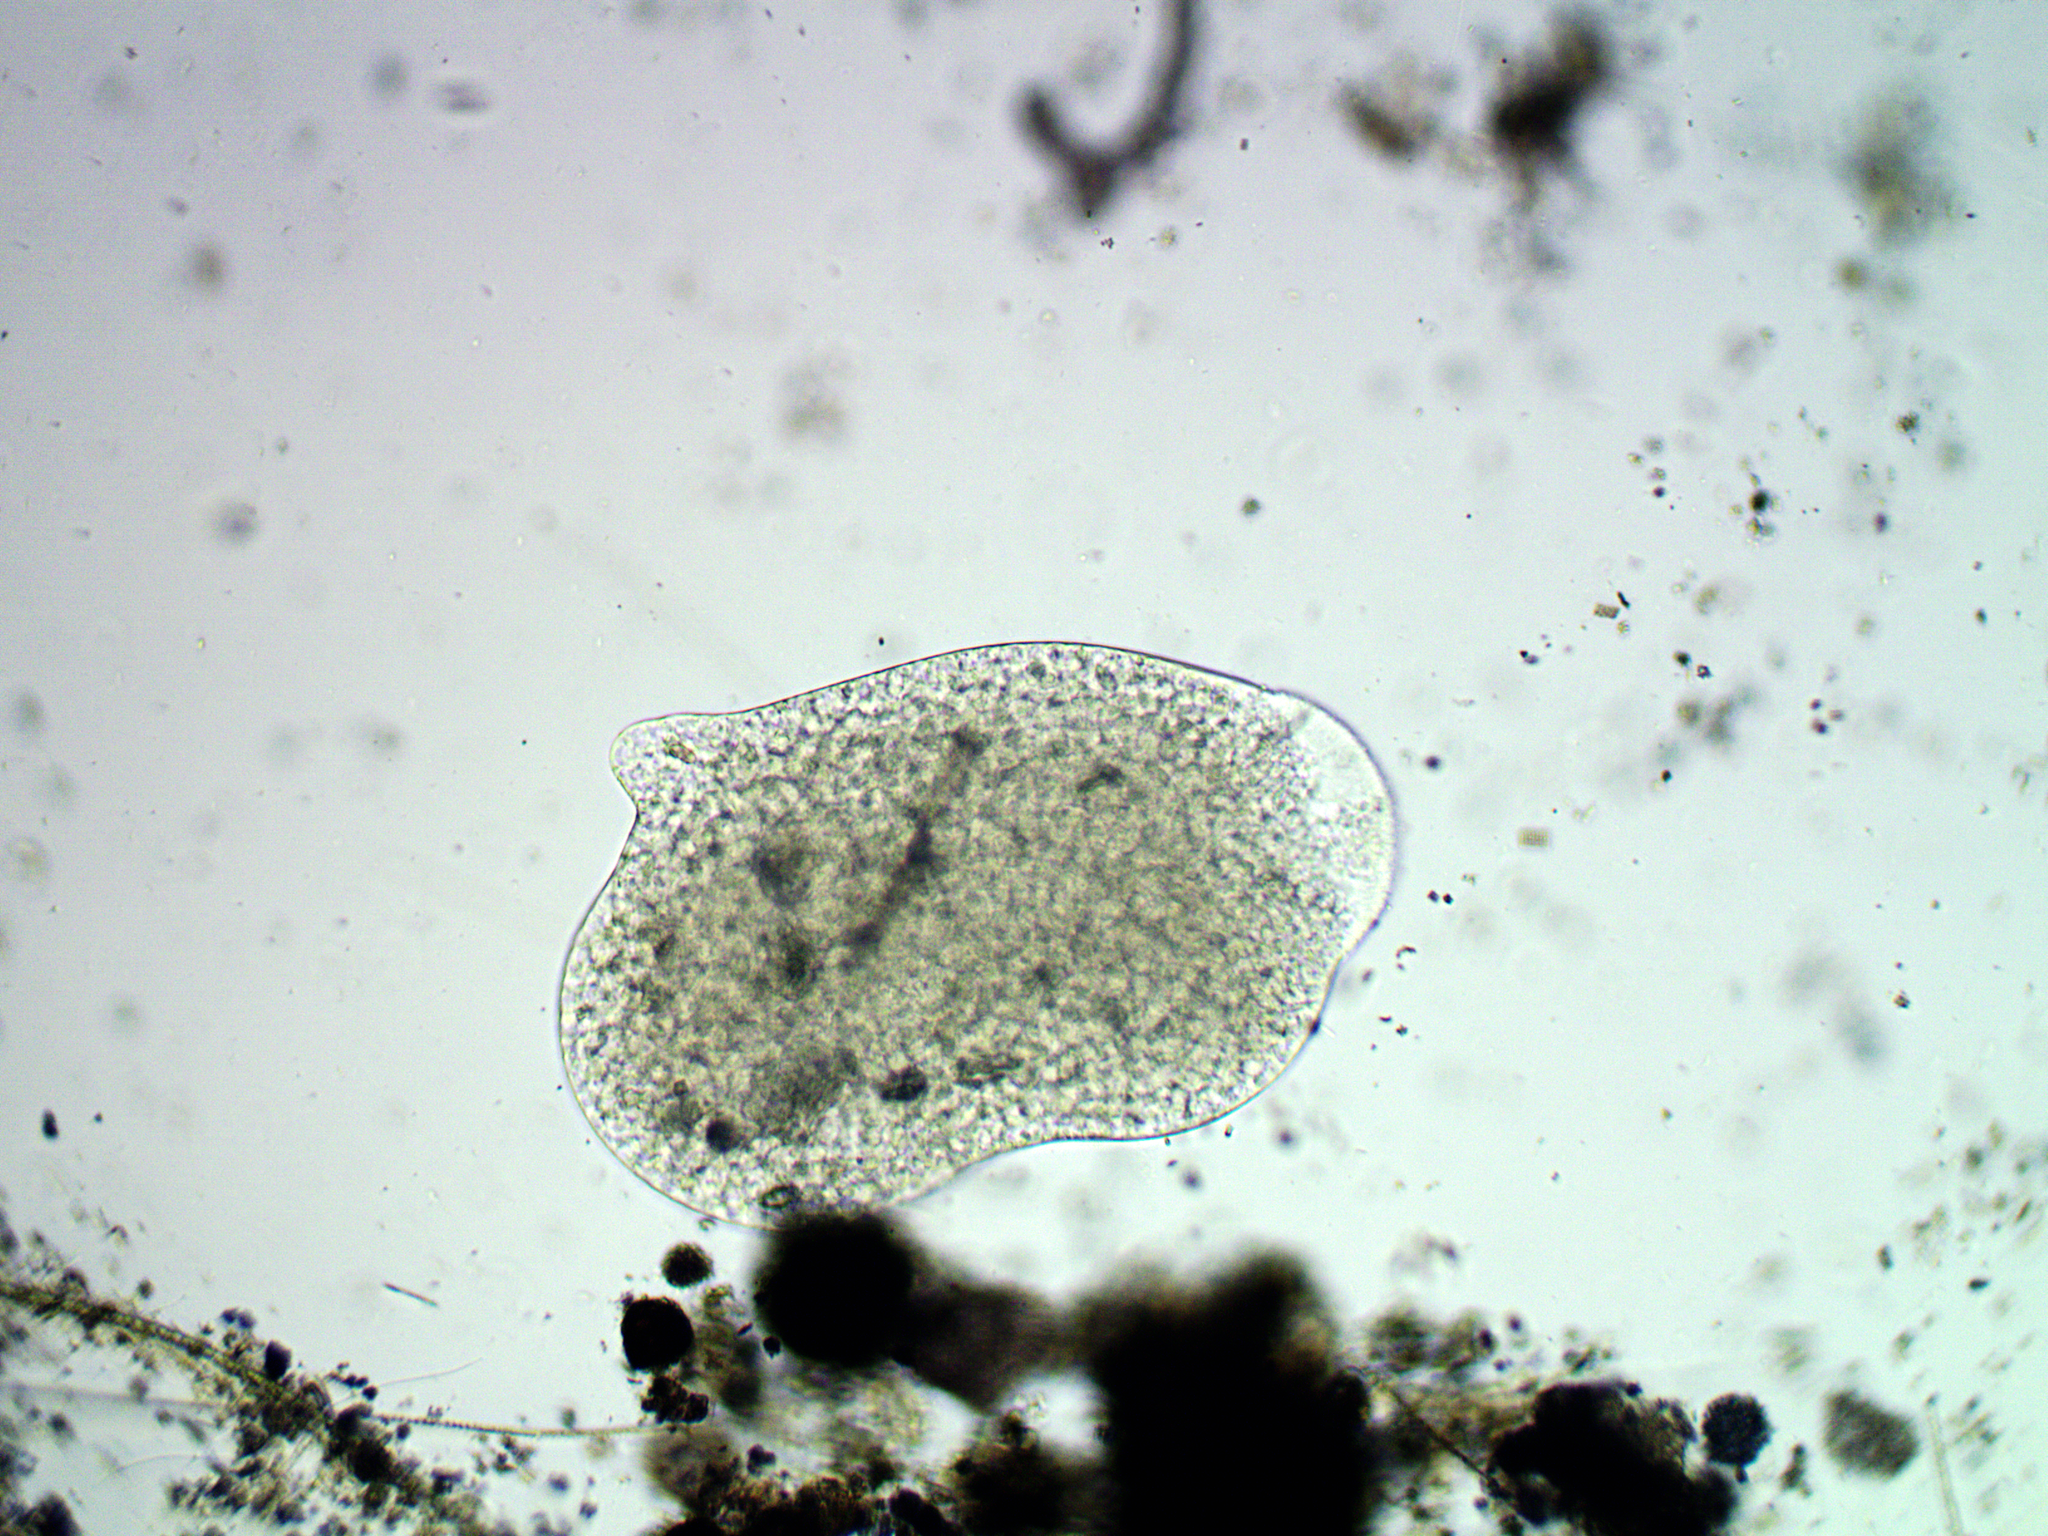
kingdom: Protozoa
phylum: Amoebozoa
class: Lobosa
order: Amoebida
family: Pelomyxidae
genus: Pelomyxa
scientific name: Pelomyxa palustris
